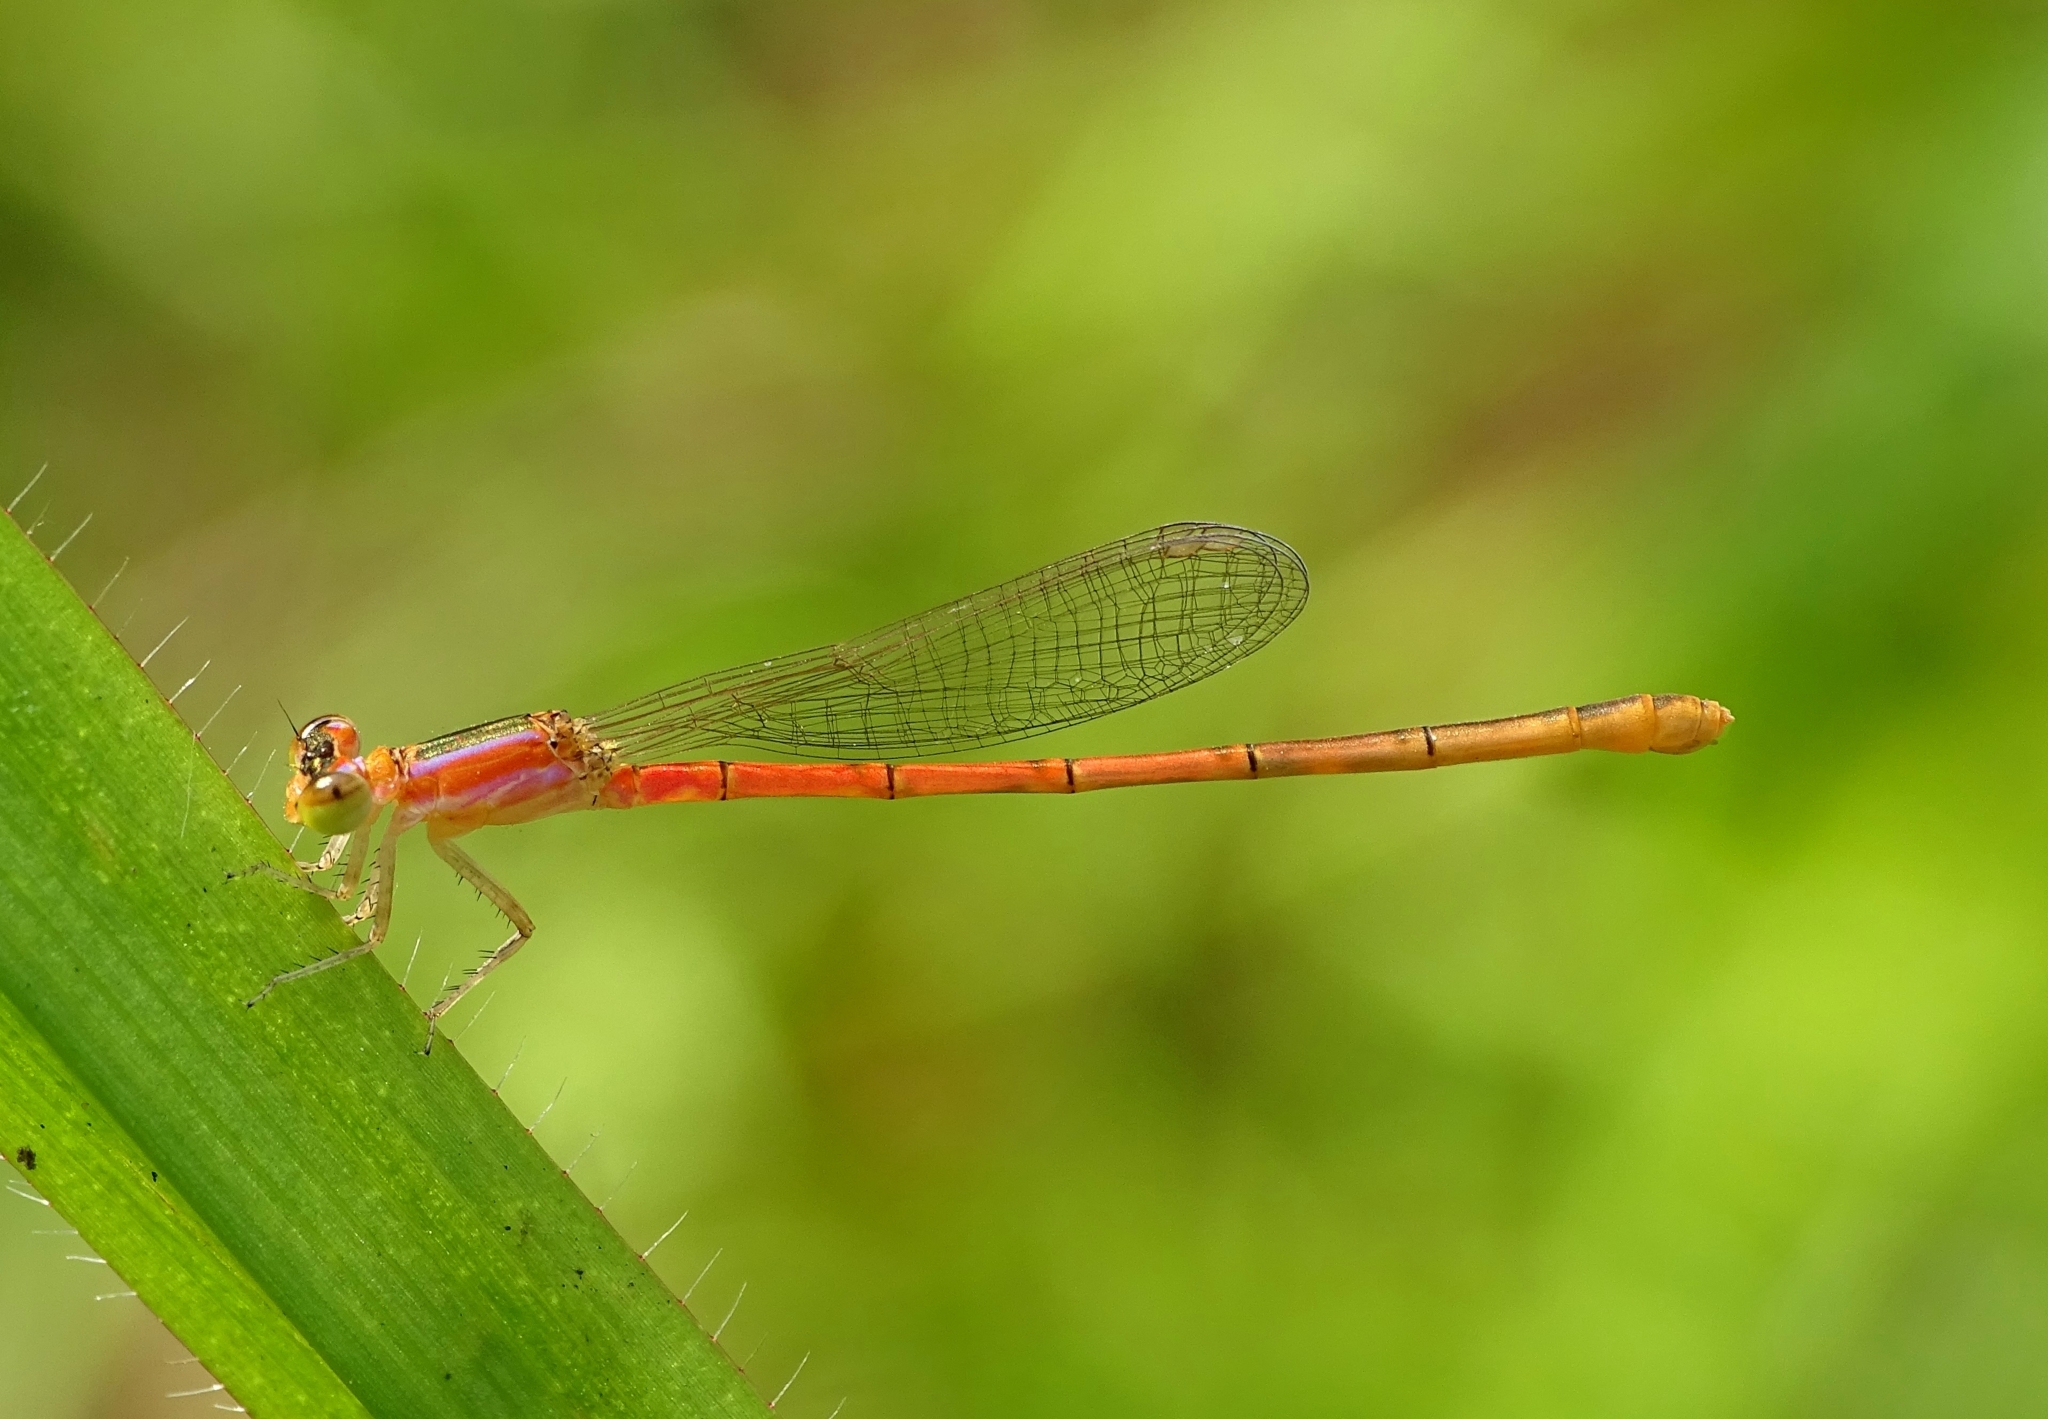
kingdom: Animalia
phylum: Arthropoda
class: Insecta
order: Odonata
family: Coenagrionidae
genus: Agriocnemis
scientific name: Agriocnemis pygmaea
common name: Pygmy wisp
